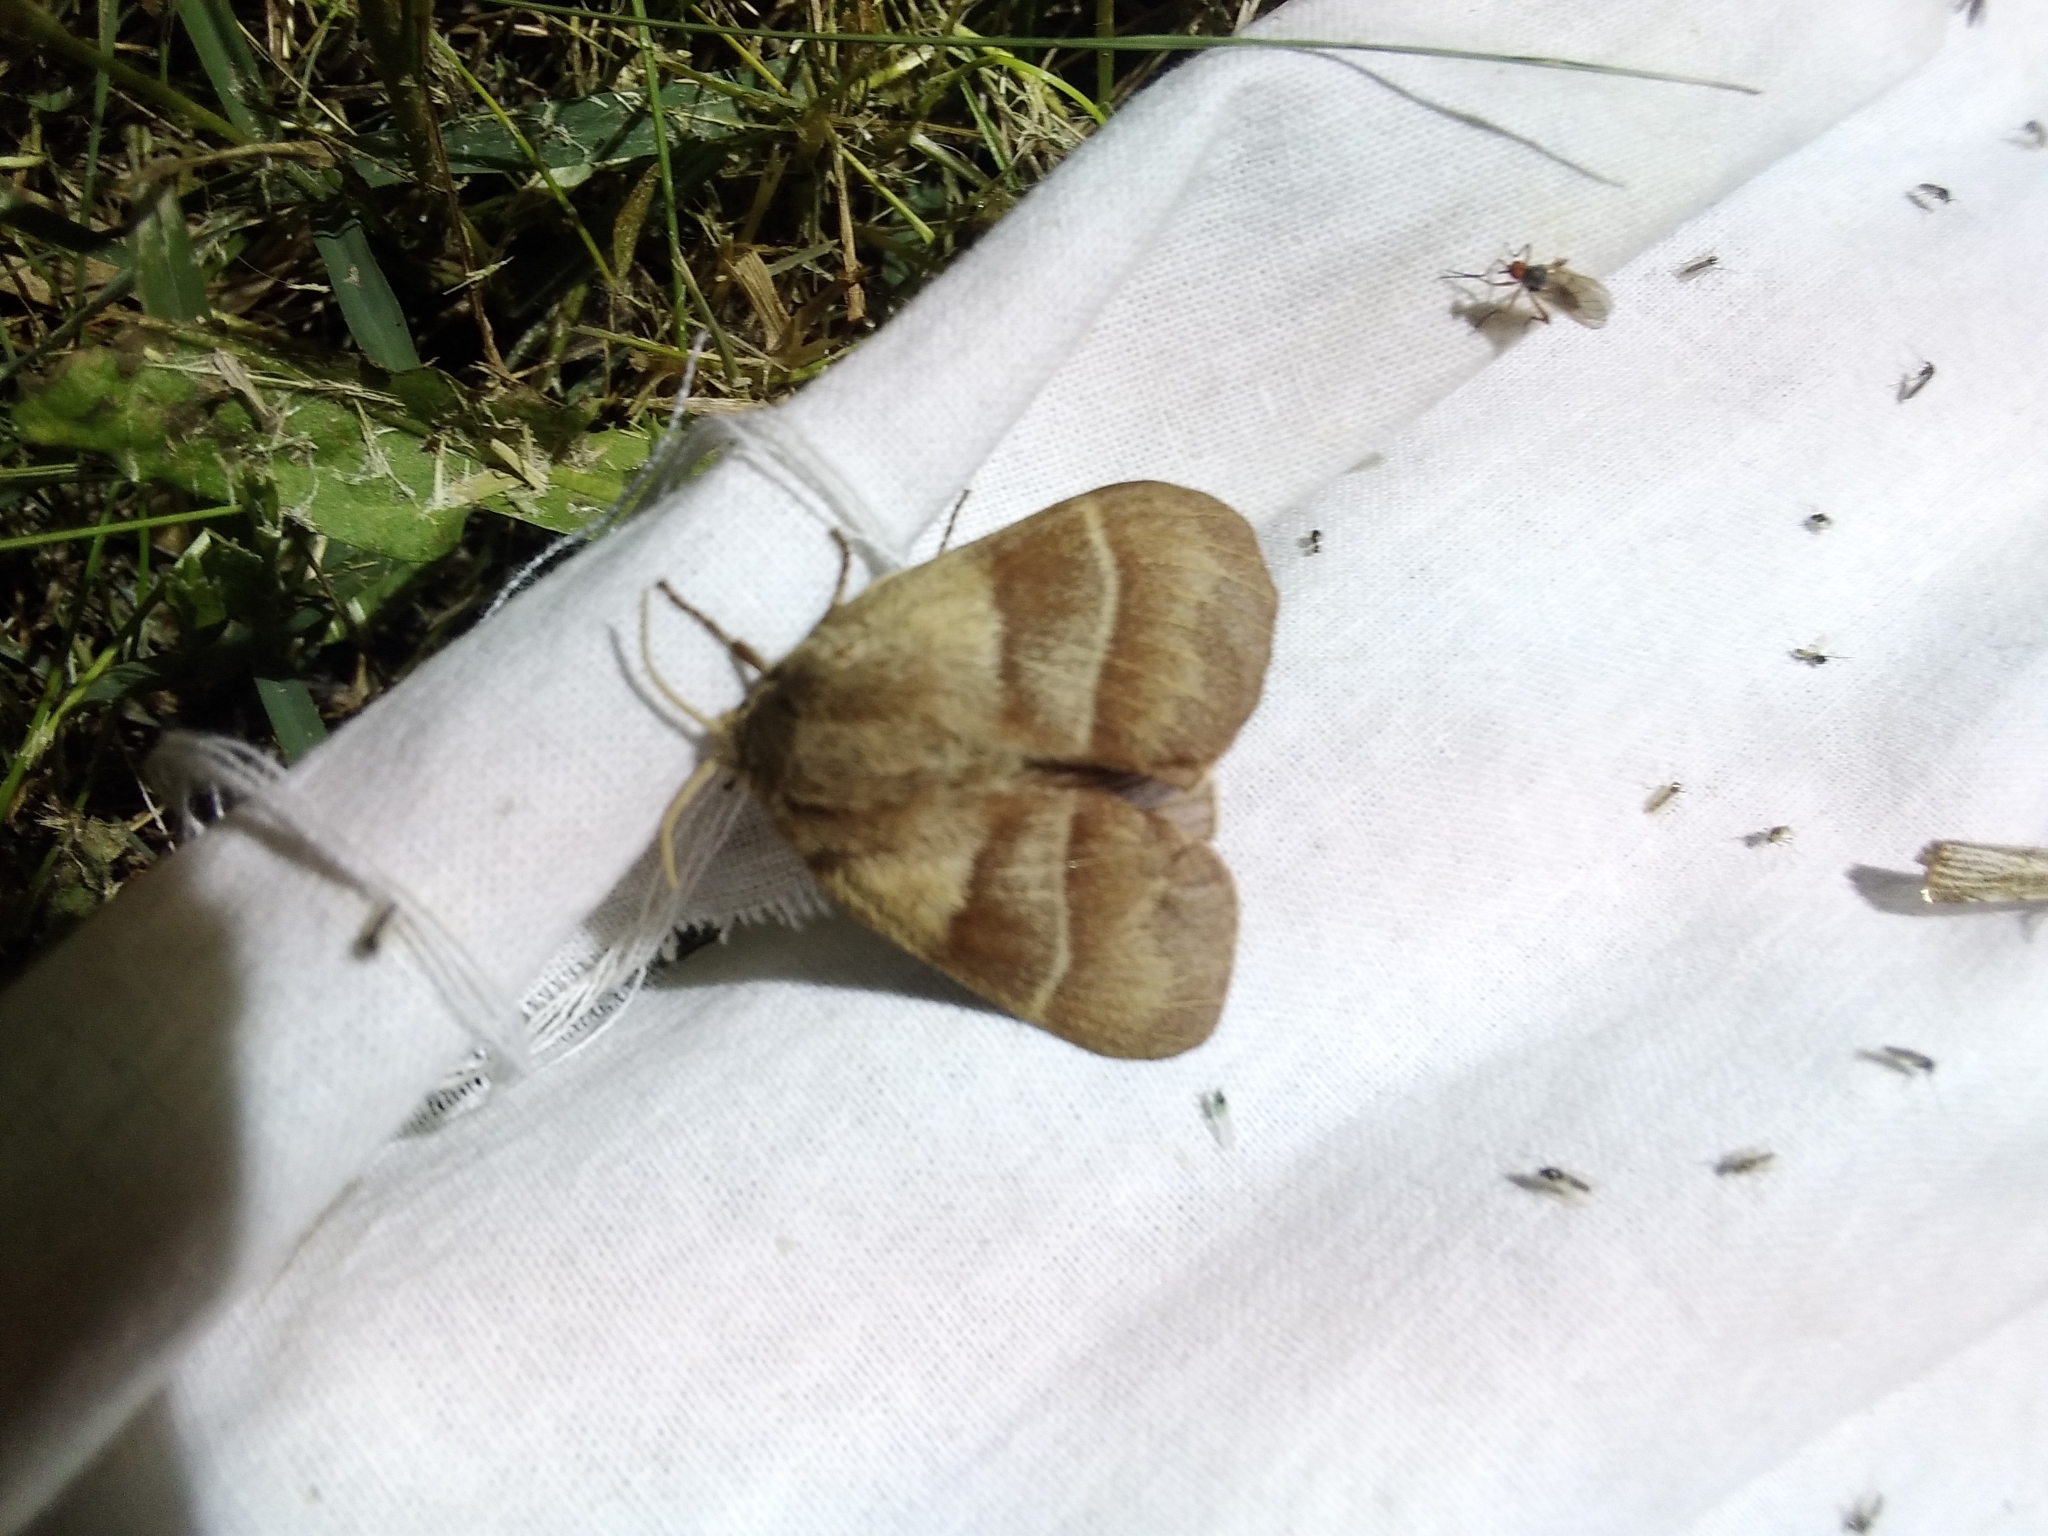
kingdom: Animalia
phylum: Arthropoda
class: Insecta
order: Lepidoptera
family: Lasiocampidae
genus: Macrothylacia
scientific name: Macrothylacia rubi
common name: Fox moth
